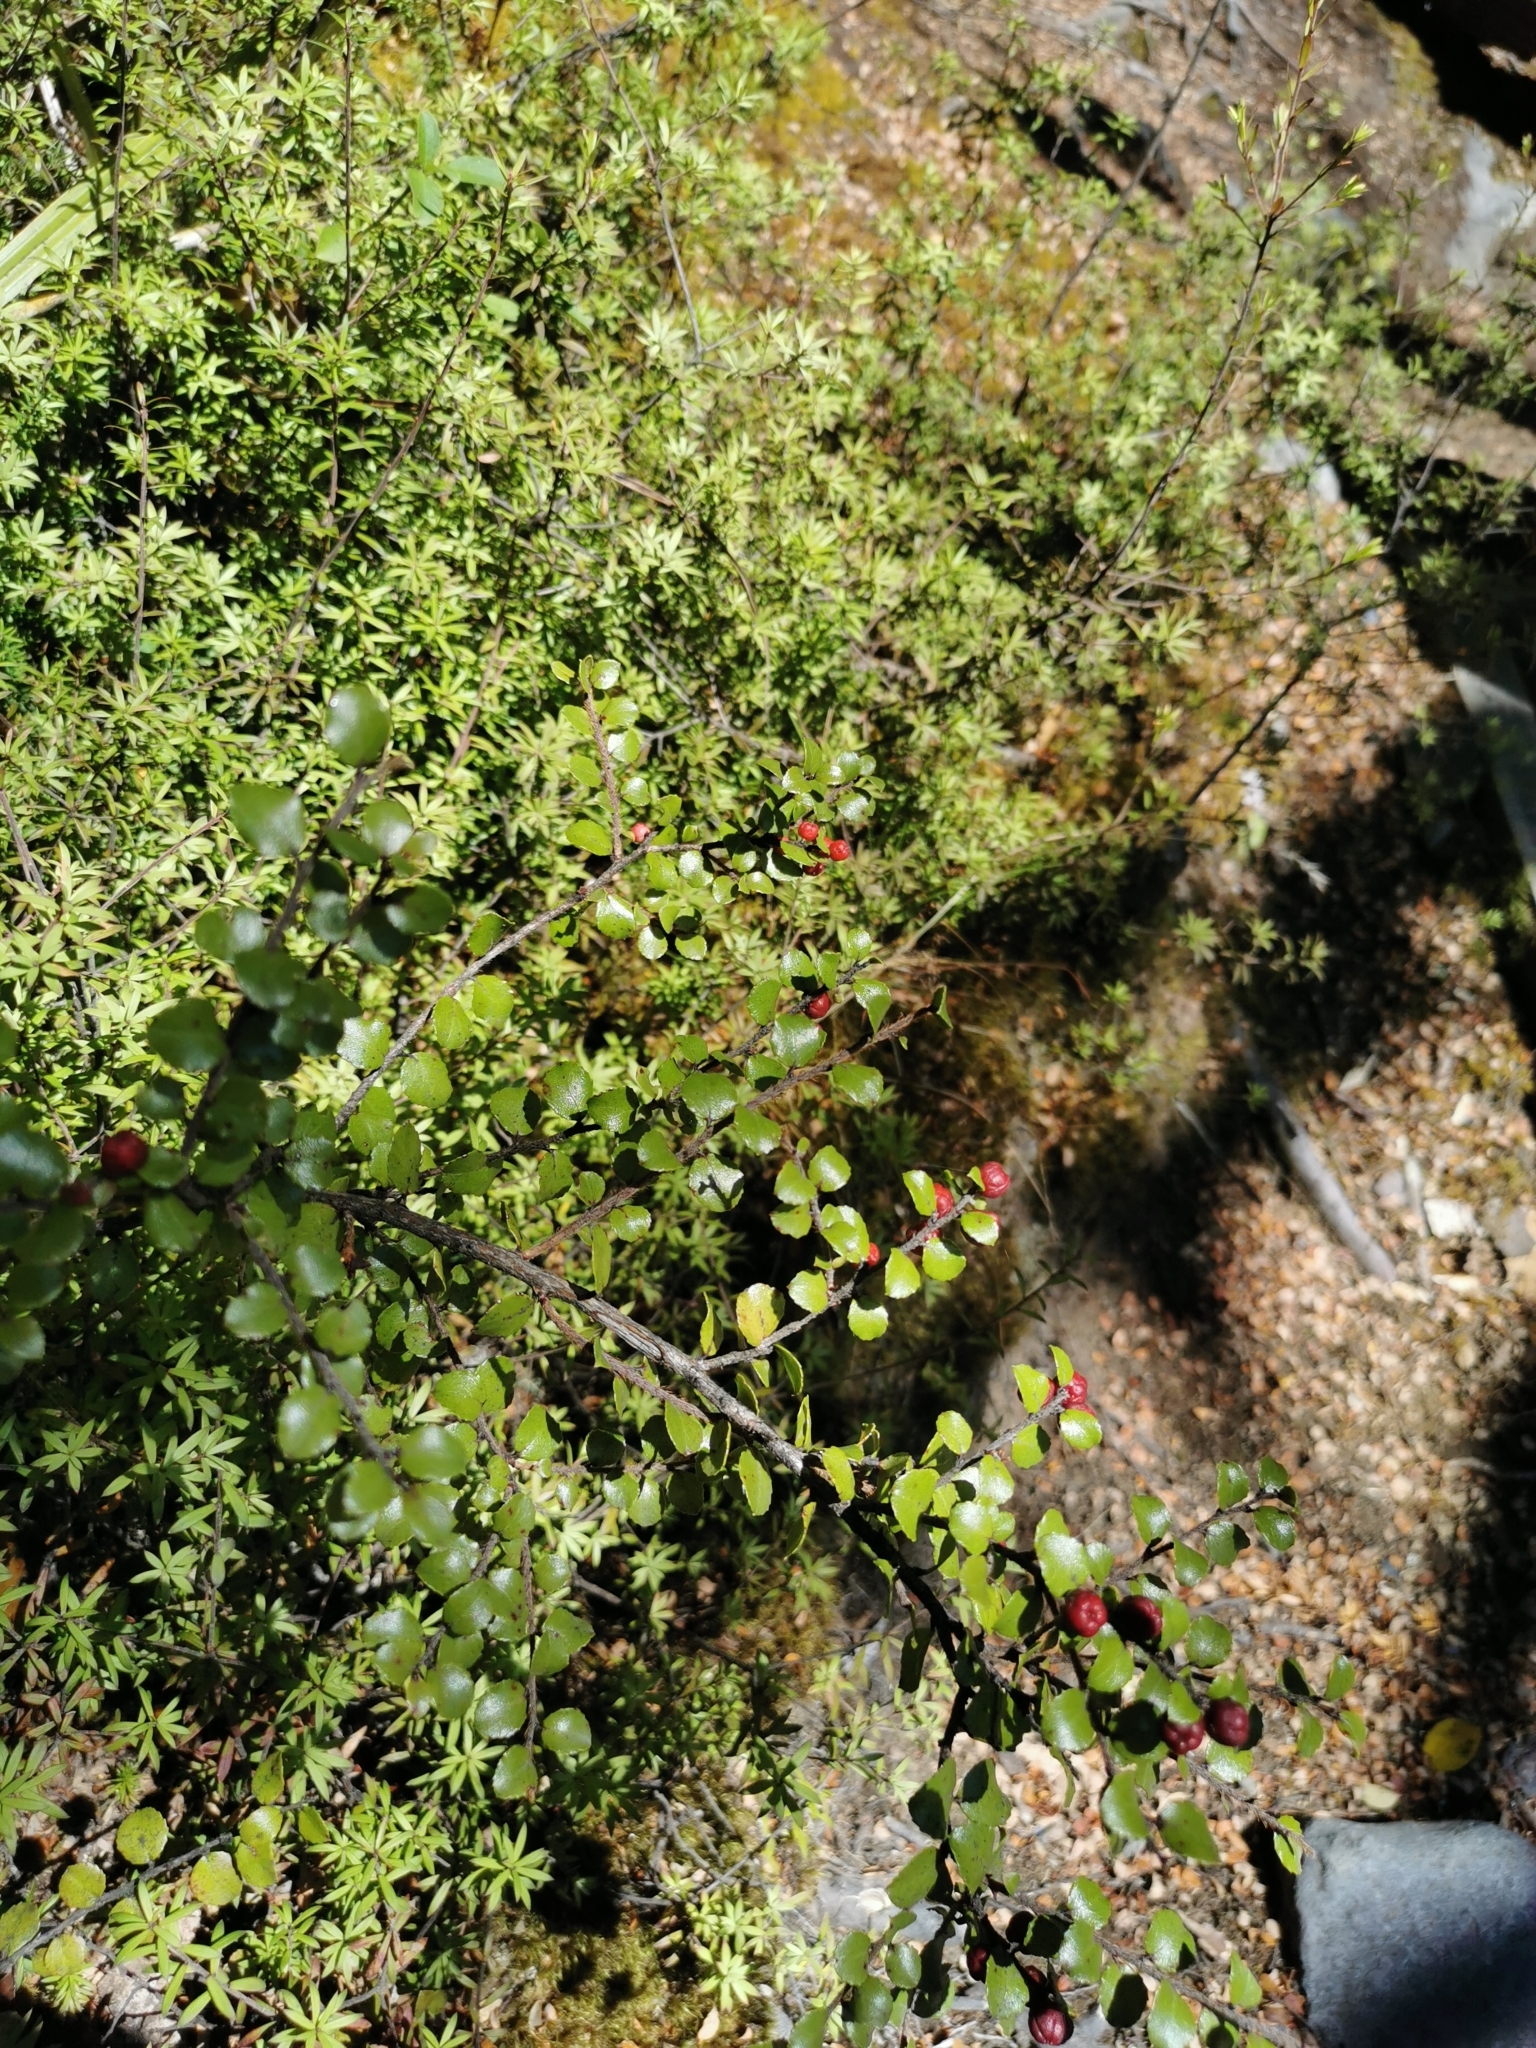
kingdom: Plantae
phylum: Tracheophyta
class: Magnoliopsida
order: Ericales
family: Ericaceae
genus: Gaultheria
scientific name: Gaultheria antipoda
